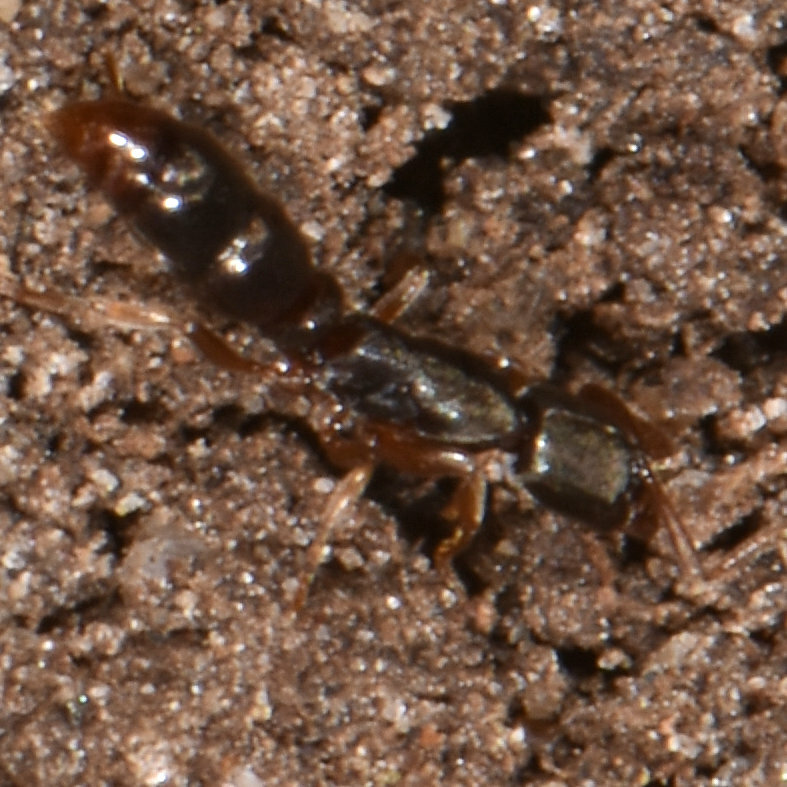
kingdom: Animalia
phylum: Arthropoda
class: Insecta
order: Hymenoptera
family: Formicidae
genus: Ponera
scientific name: Ponera pennsylvanica
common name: Pennsylvania ponera
